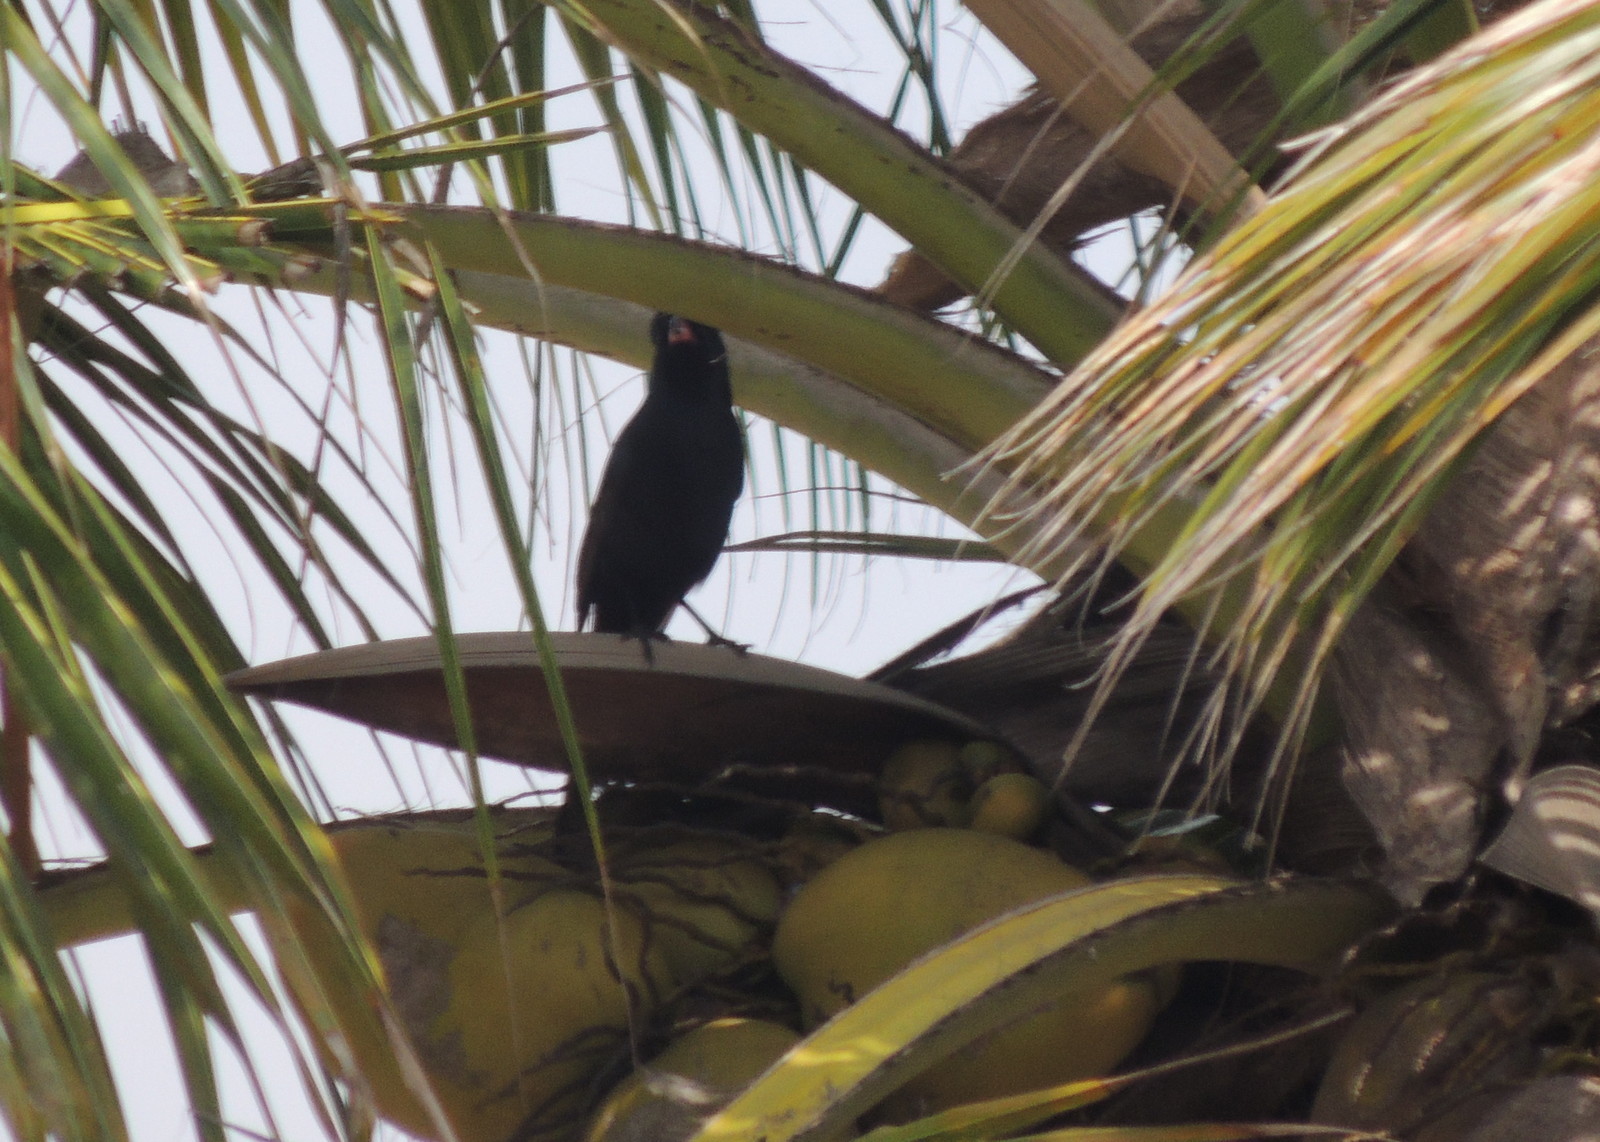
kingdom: Animalia
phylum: Chordata
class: Aves
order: Passeriformes
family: Corvidae
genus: Ptilostomus
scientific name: Ptilostomus afer
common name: Piapiac
